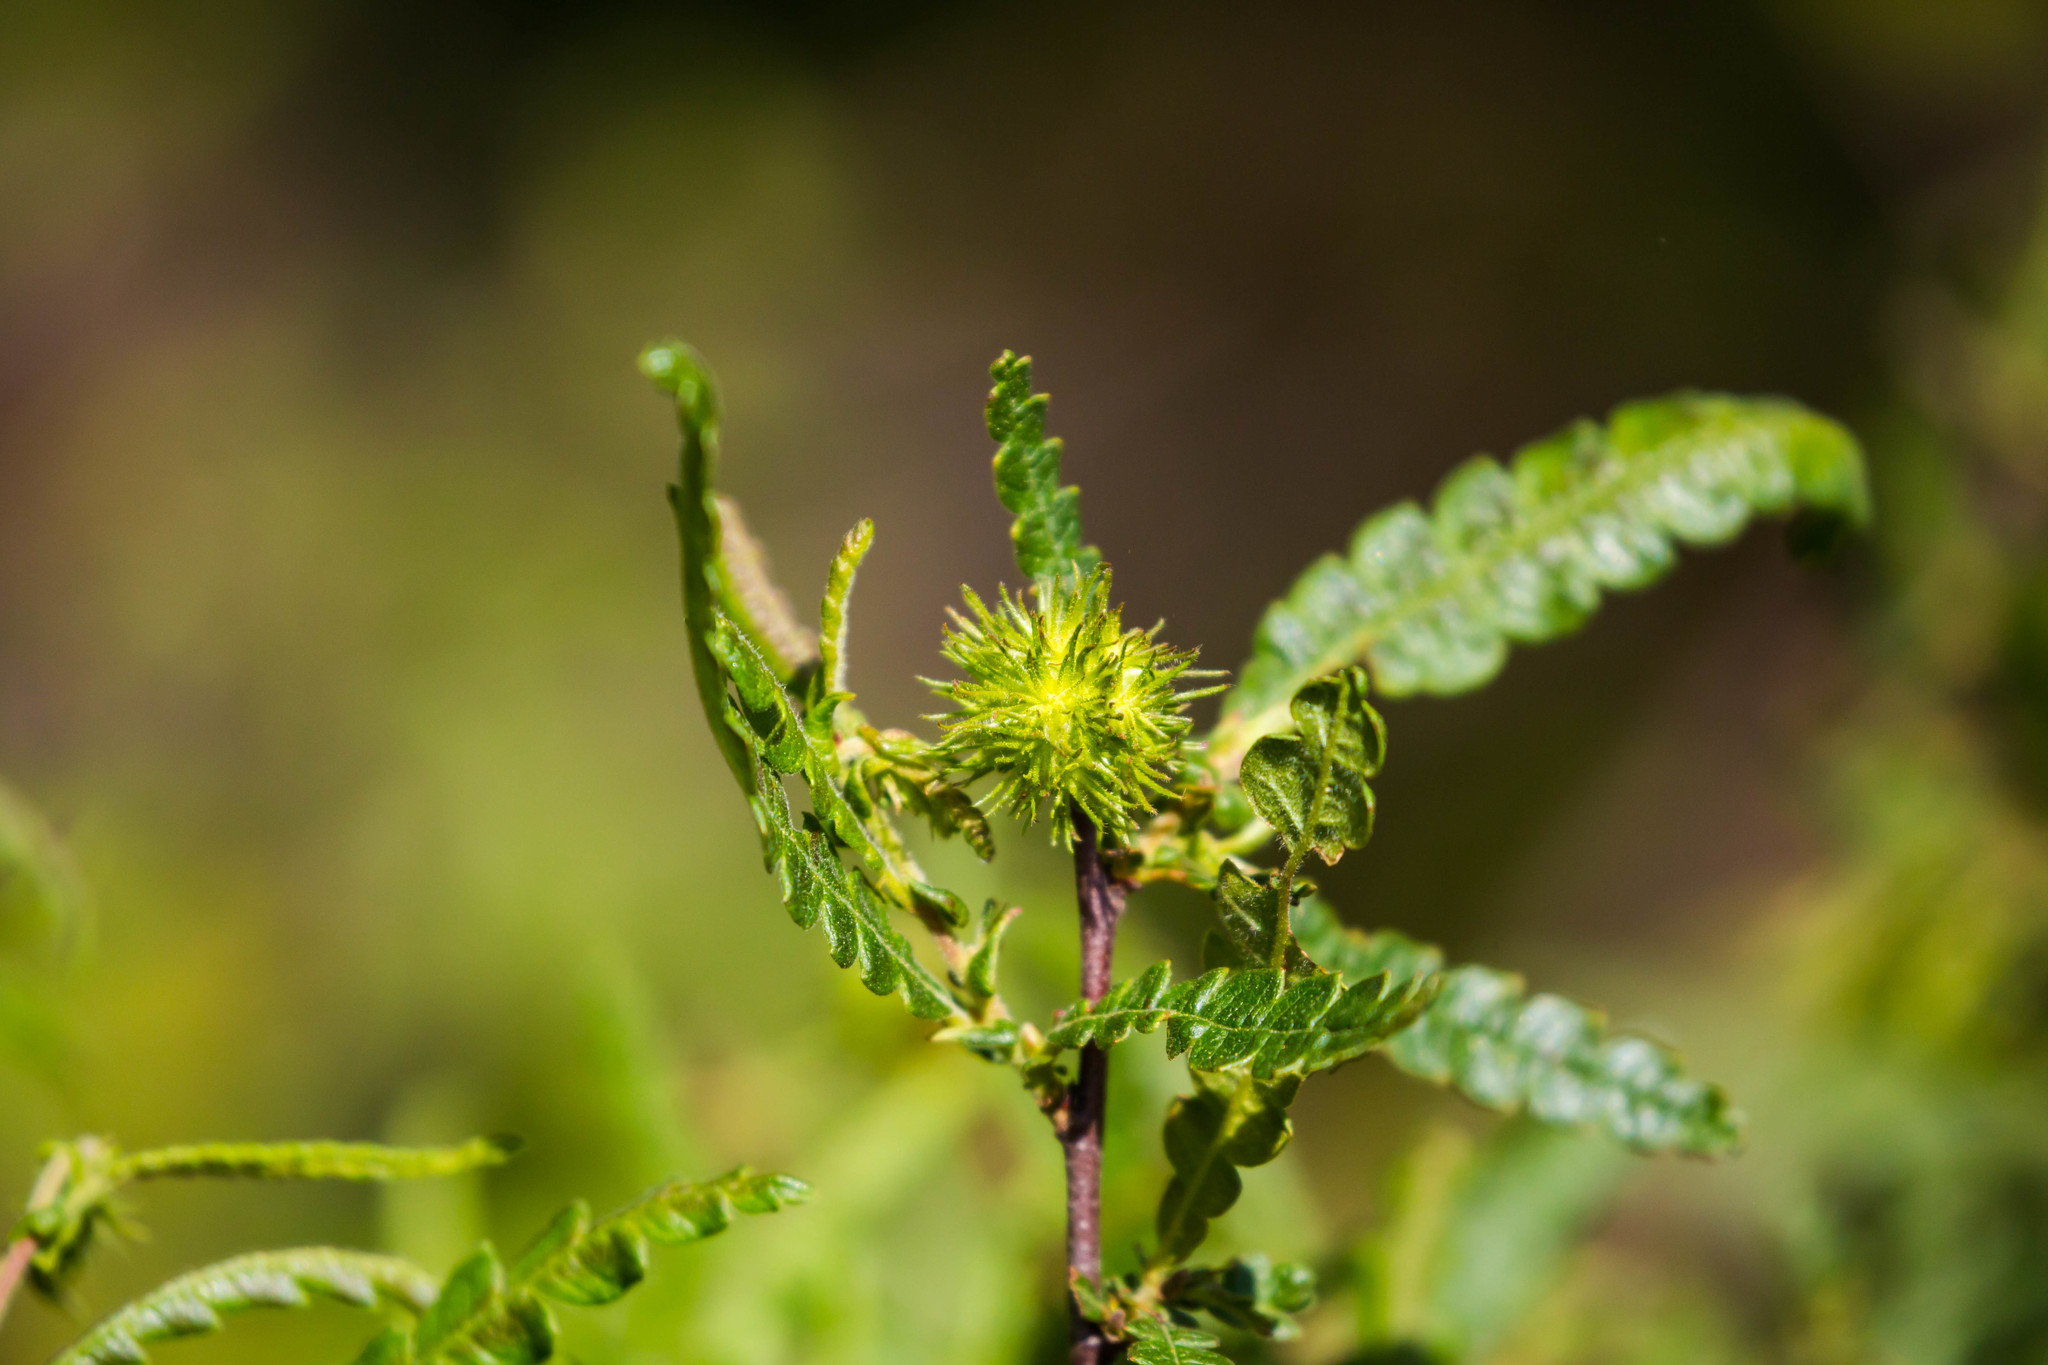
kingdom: Plantae
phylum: Tracheophyta
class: Magnoliopsida
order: Fagales
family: Myricaceae
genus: Comptonia
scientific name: Comptonia peregrina
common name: Sweet-fern
